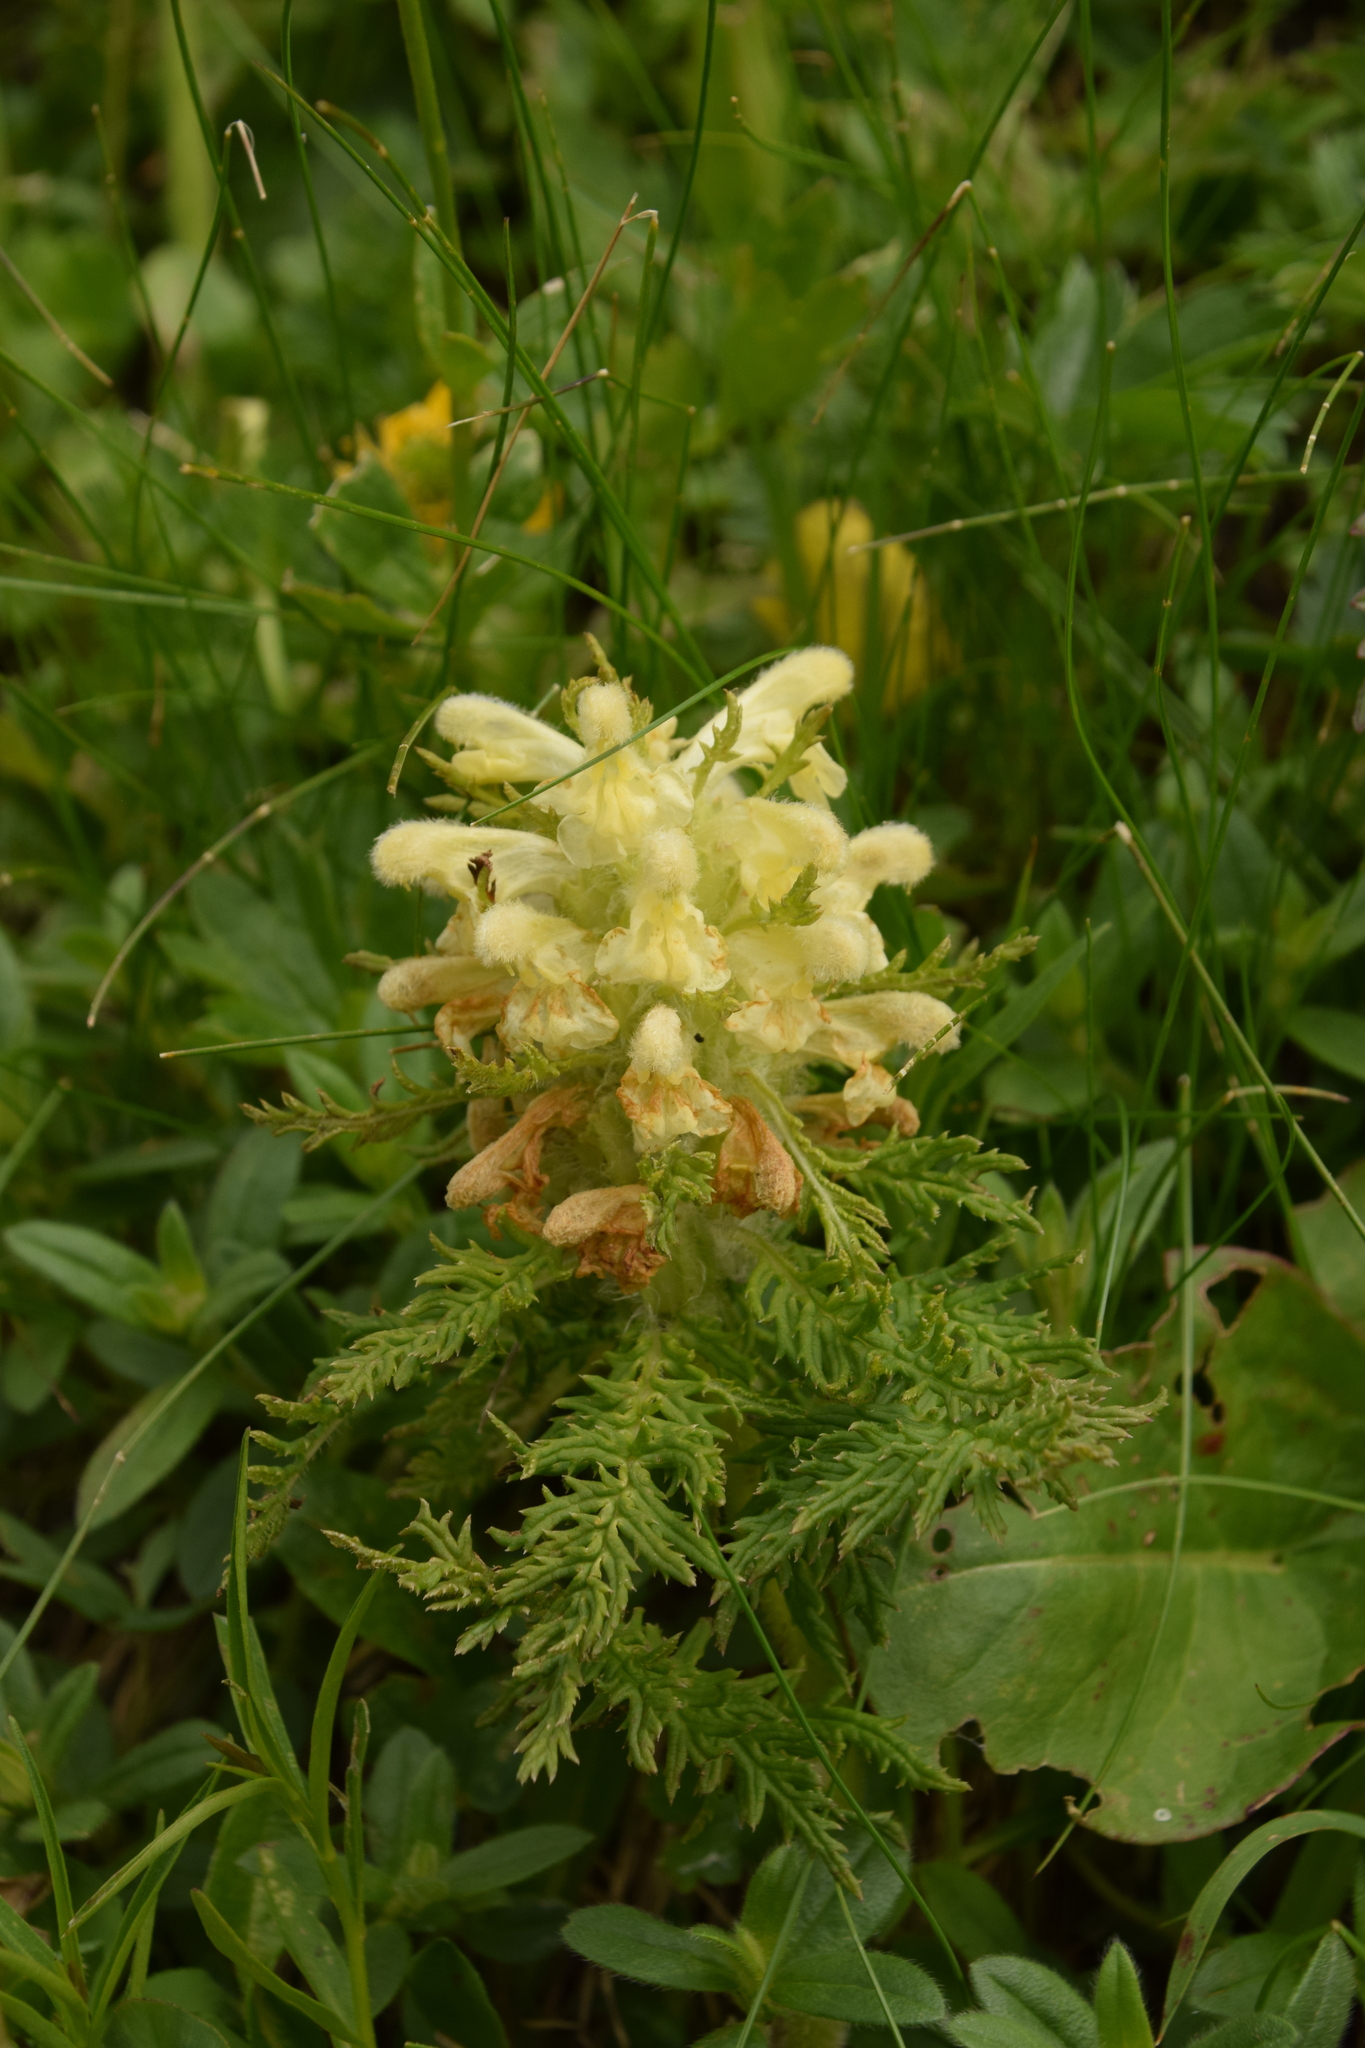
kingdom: Plantae
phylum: Tracheophyta
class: Magnoliopsida
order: Lamiales
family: Orobanchaceae
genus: Pedicularis
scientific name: Pedicularis foliosa
